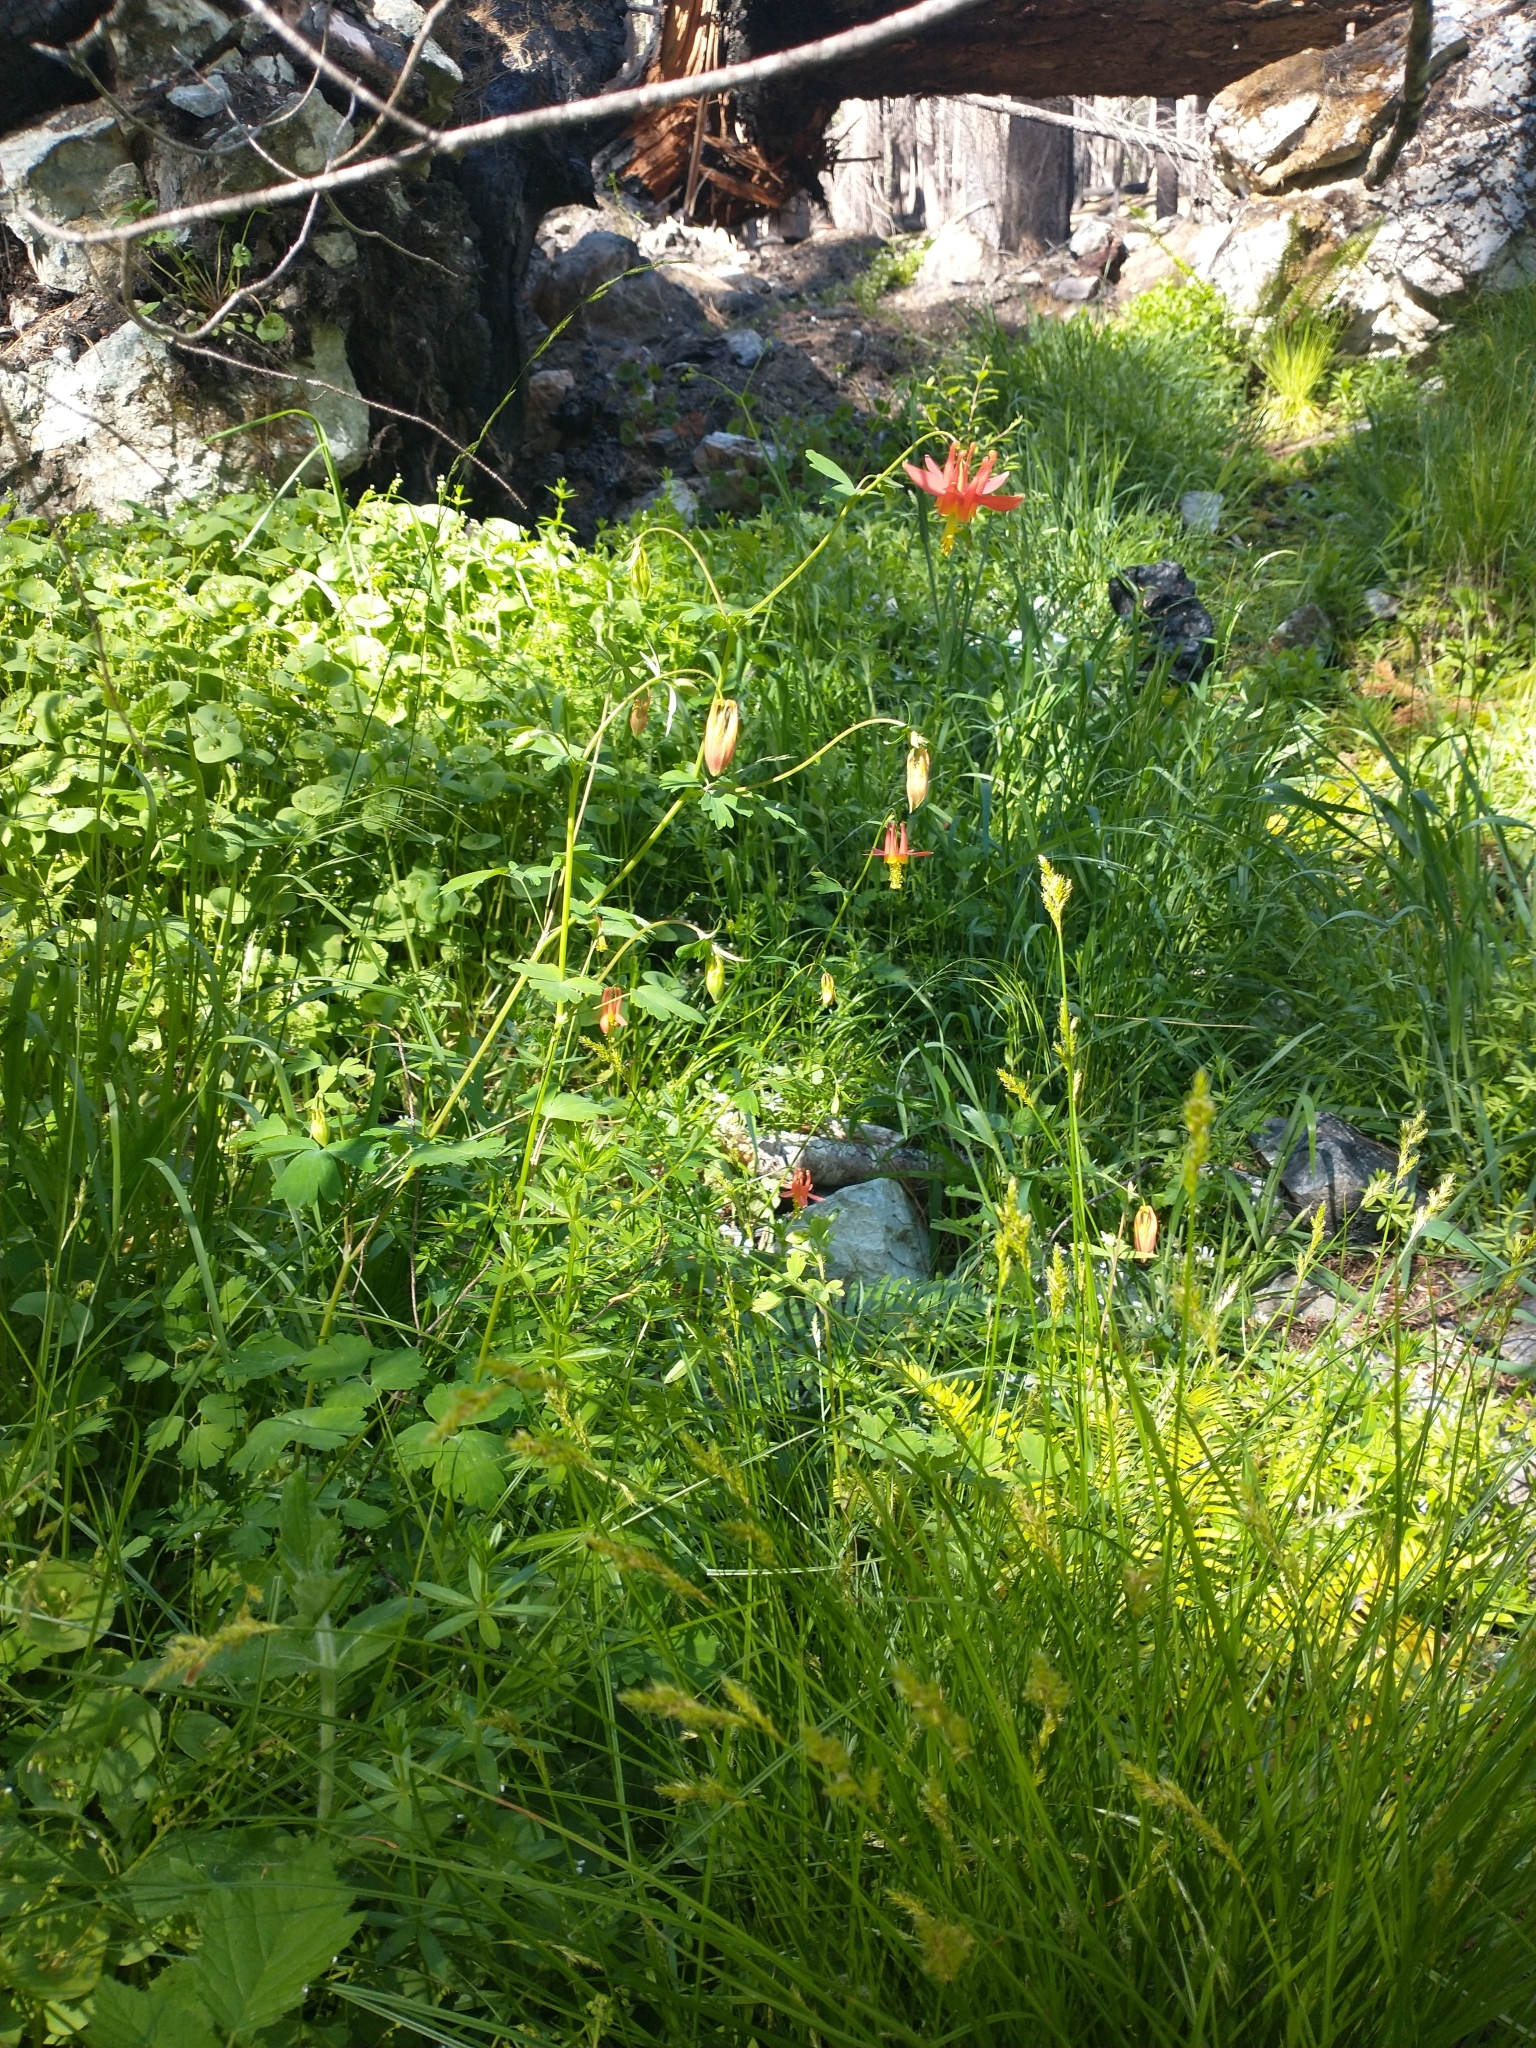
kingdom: Plantae
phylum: Tracheophyta
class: Magnoliopsida
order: Ranunculales
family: Ranunculaceae
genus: Aquilegia
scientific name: Aquilegia formosa
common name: Sitka columbine
